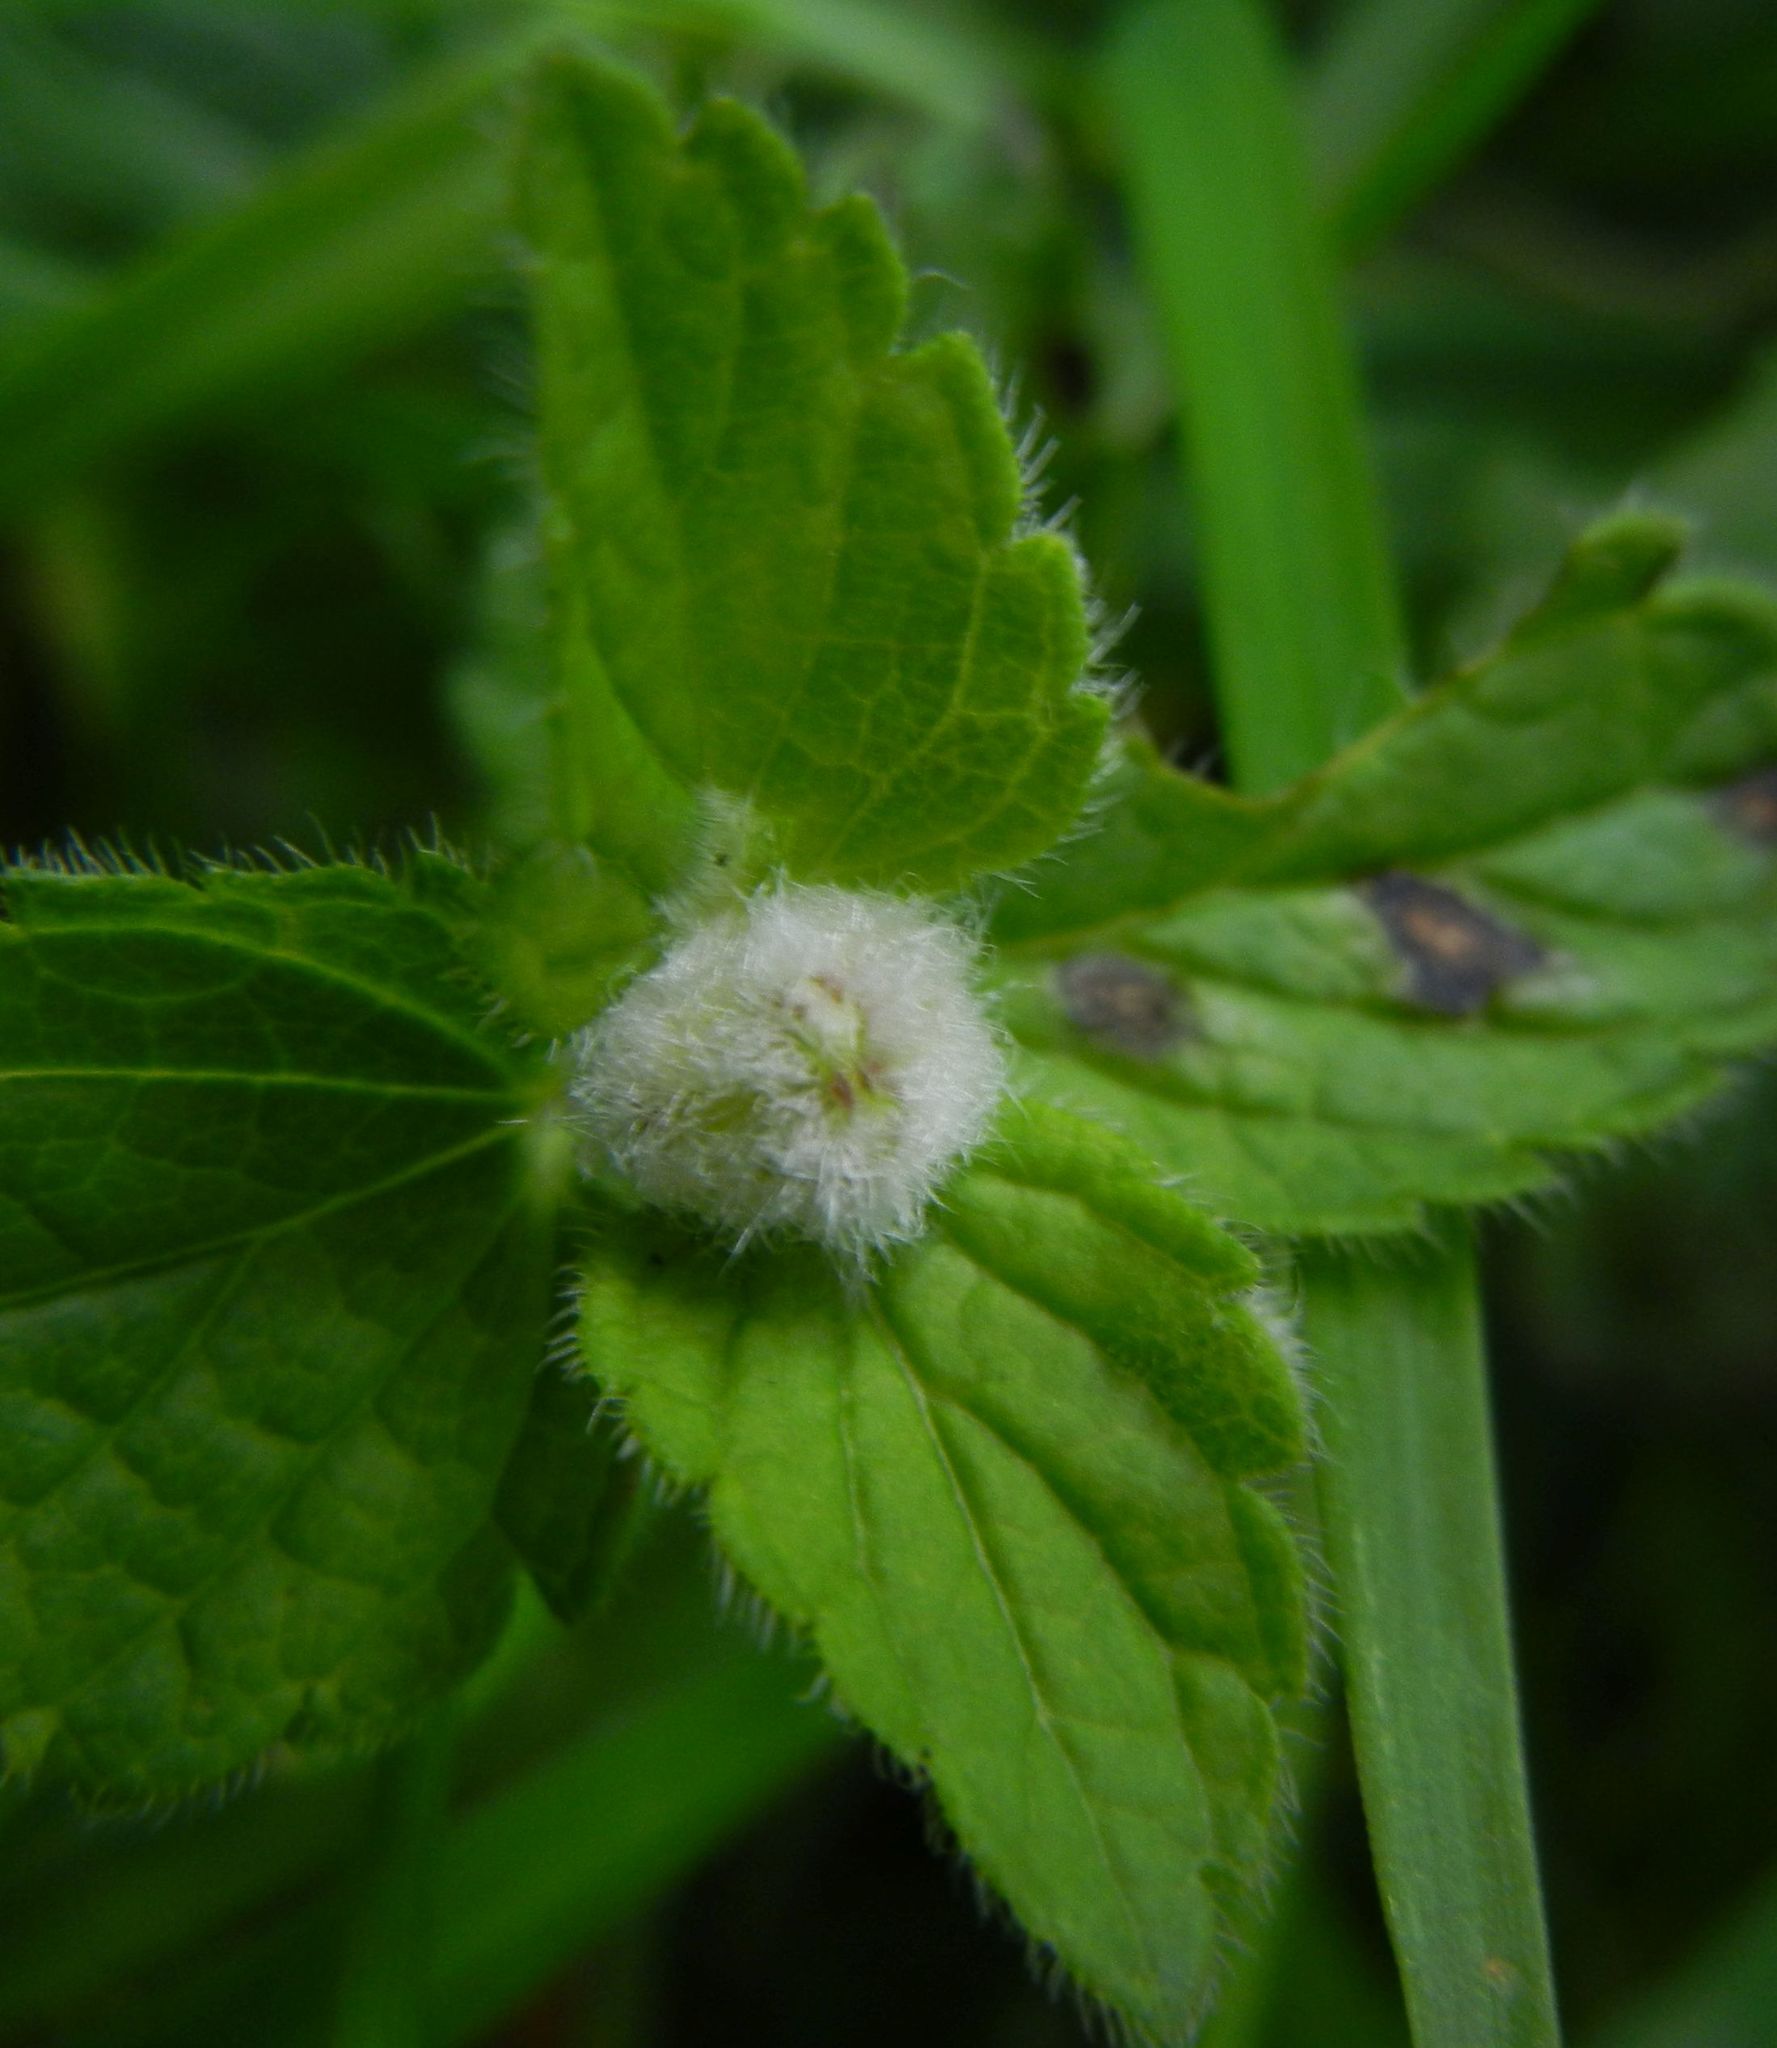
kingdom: Animalia
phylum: Arthropoda
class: Insecta
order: Diptera
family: Cecidomyiidae
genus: Jaapiella
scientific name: Jaapiella veronicae
